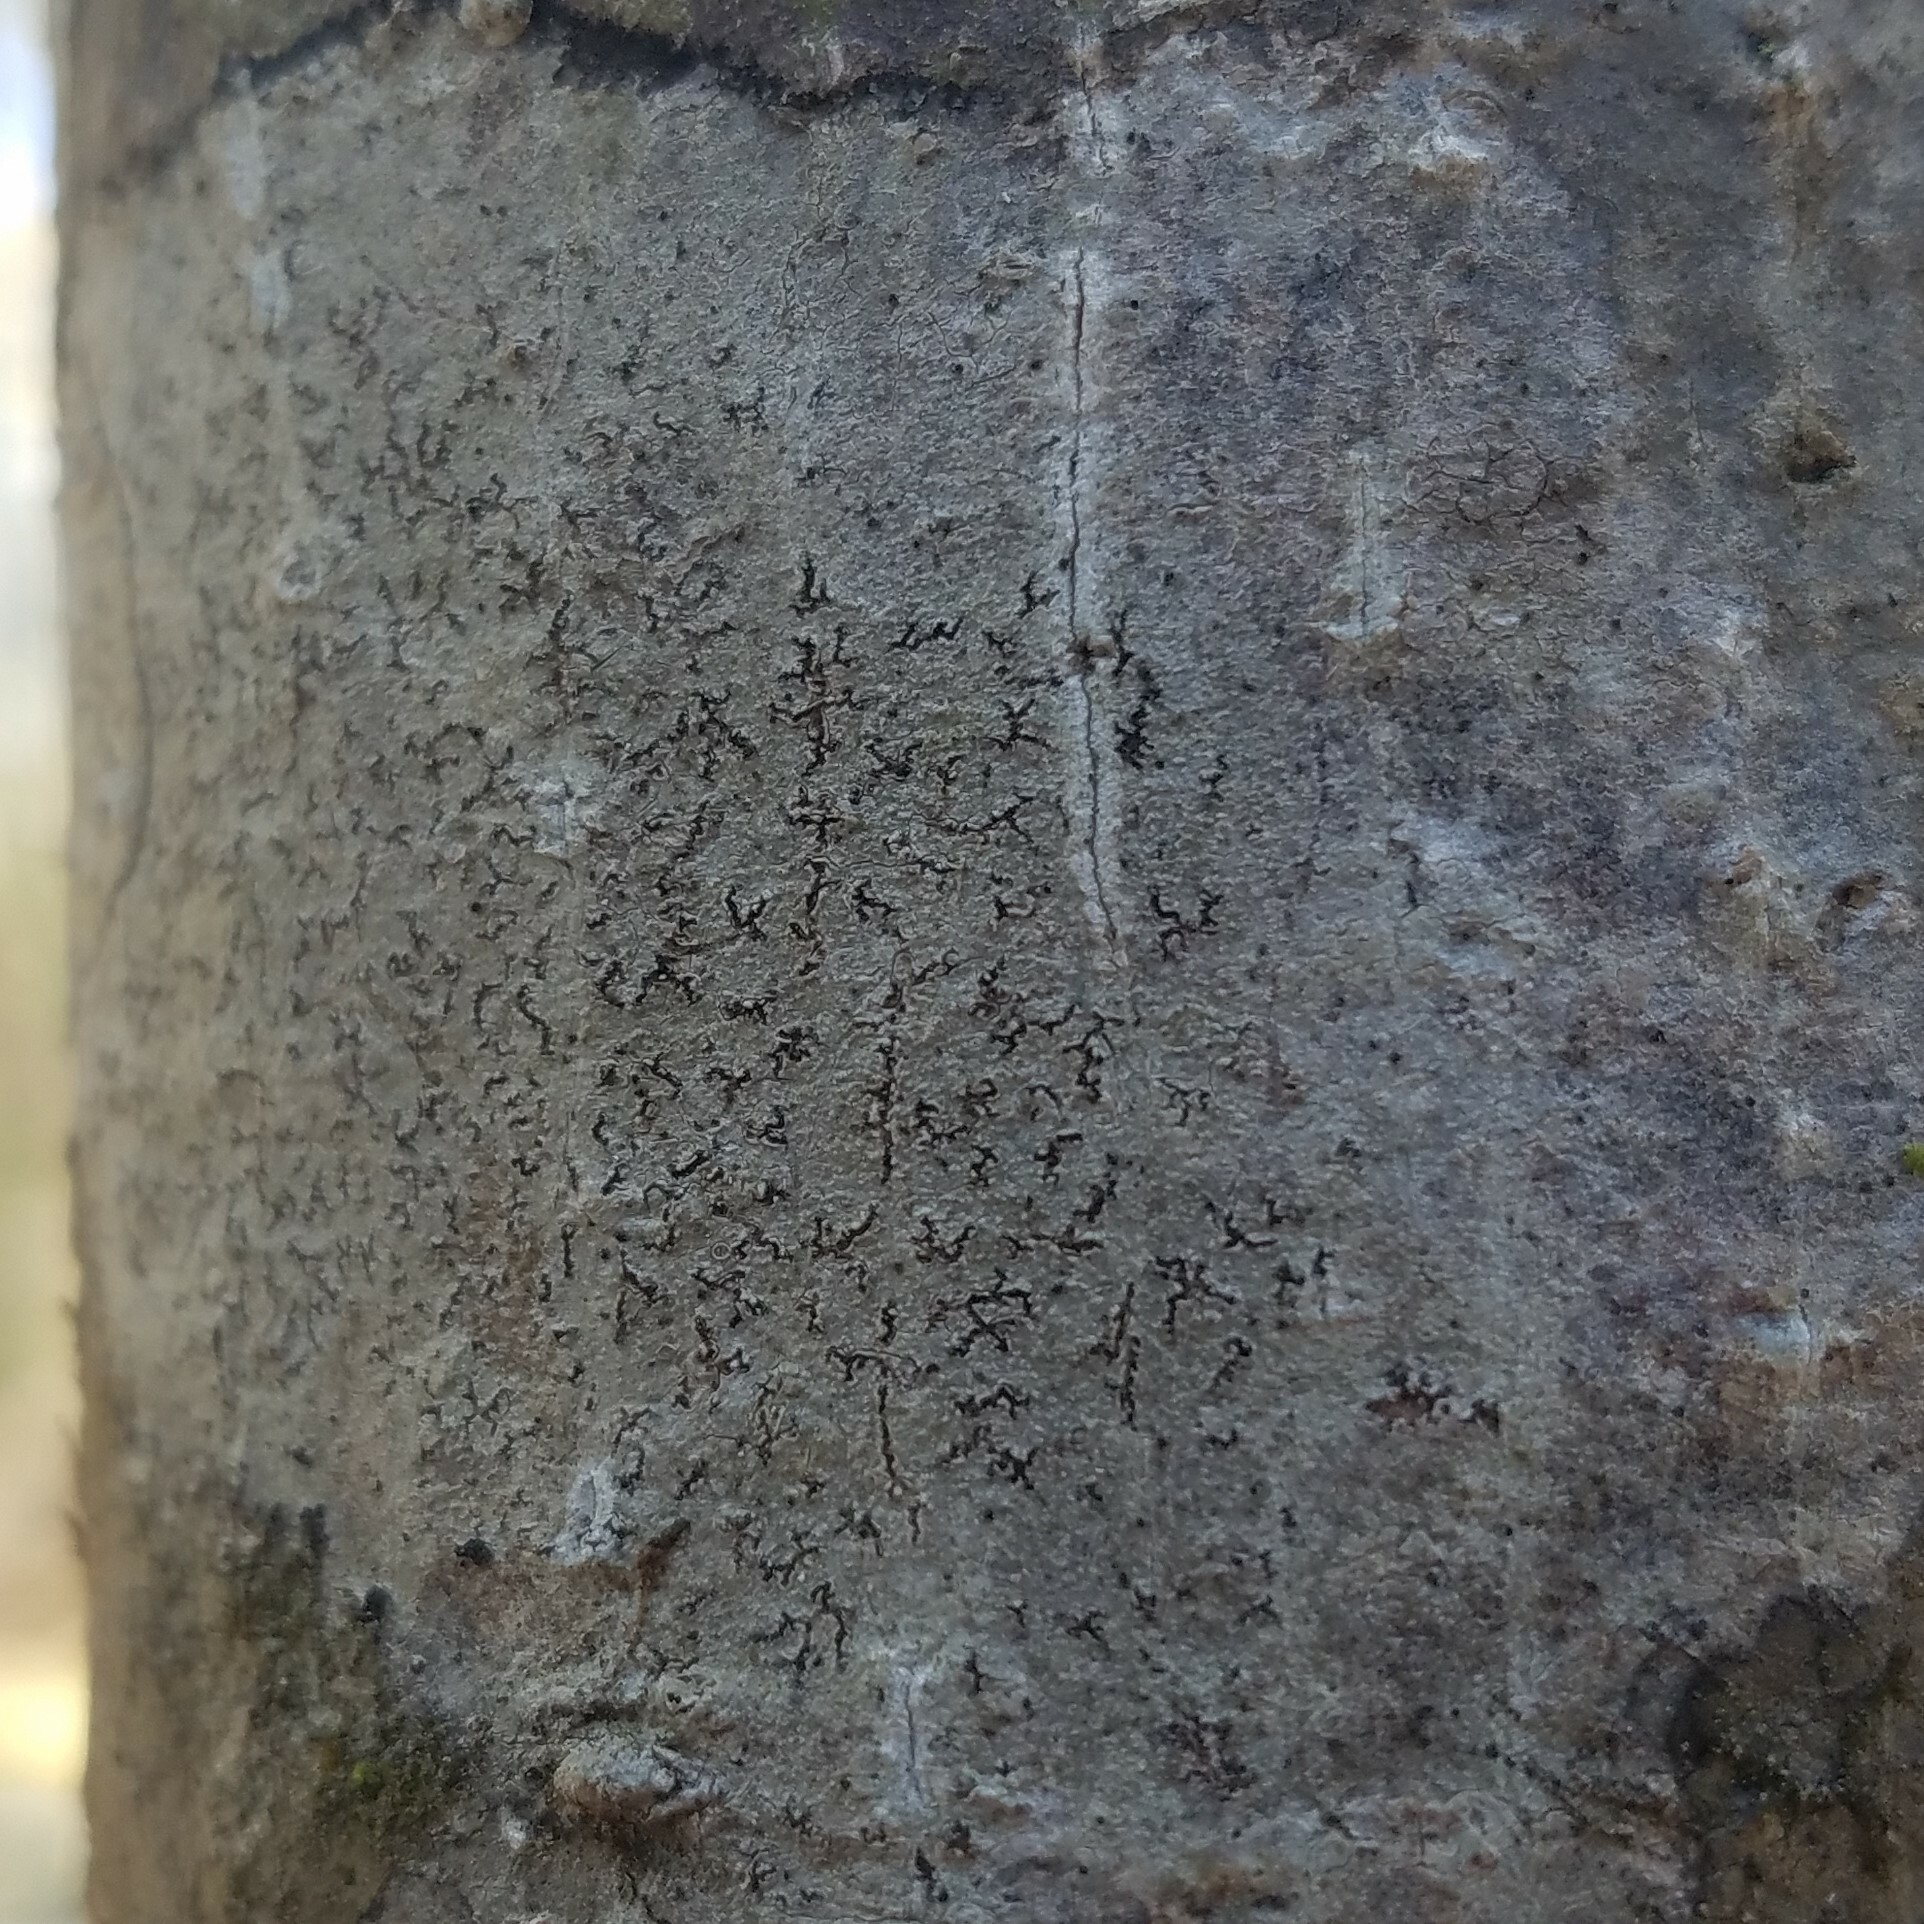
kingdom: Fungi
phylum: Ascomycota
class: Arthoniomycetes
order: Arthoniales
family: Arthoniaceae
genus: Arthonia
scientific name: Arthonia rubella
